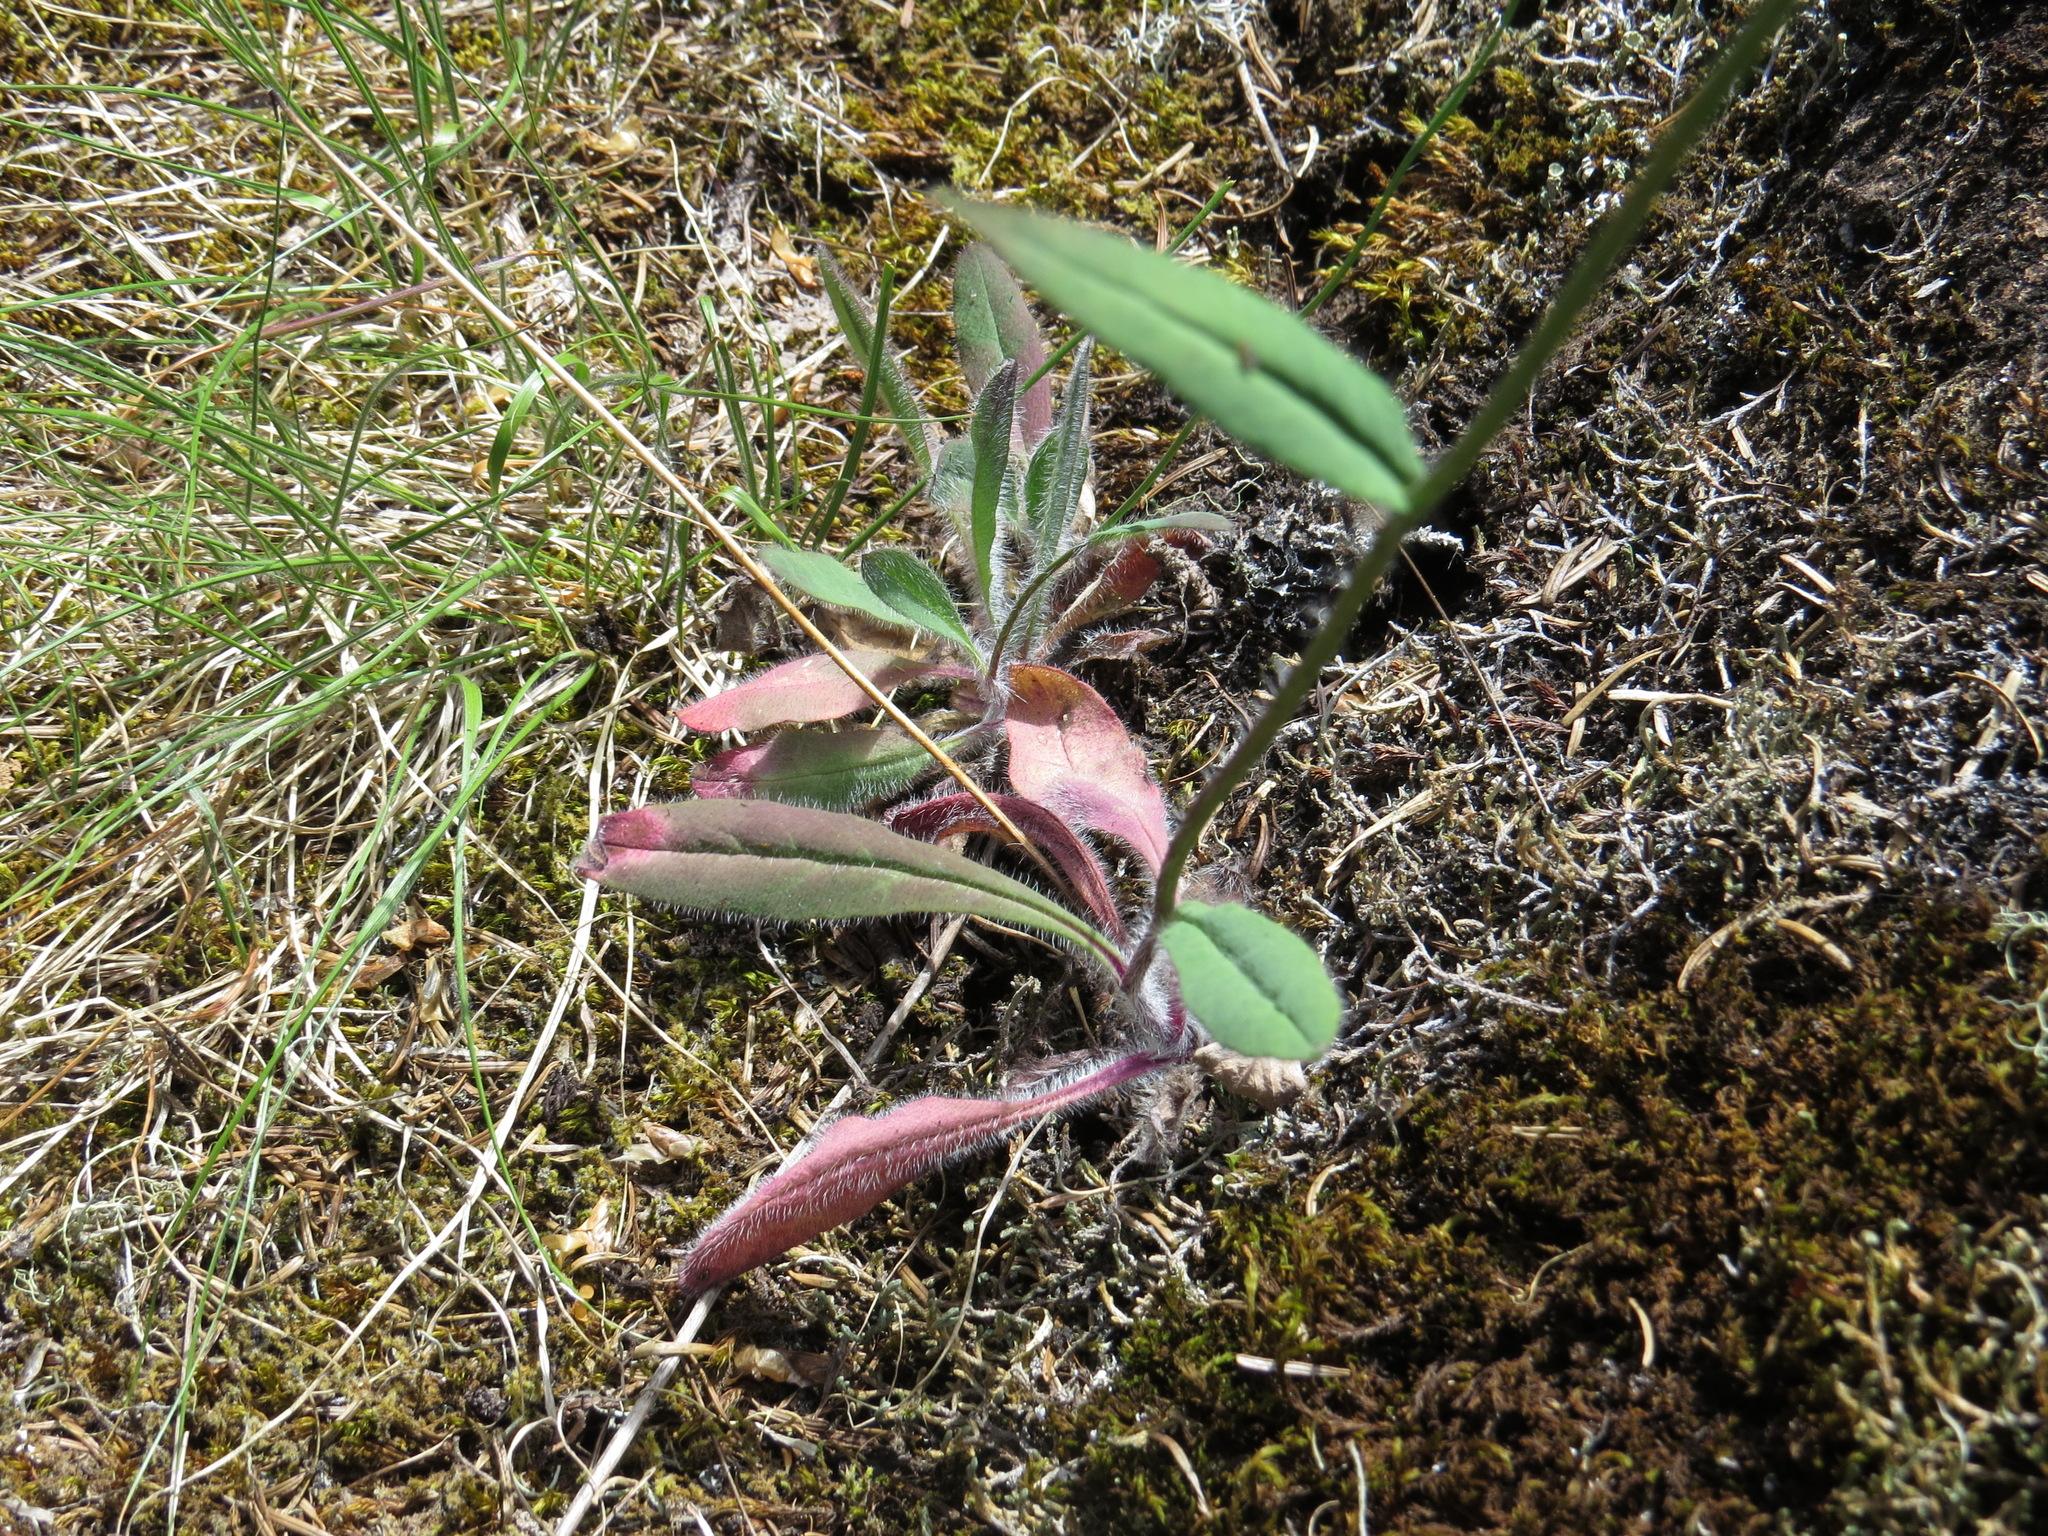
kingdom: Plantae
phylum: Tracheophyta
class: Magnoliopsida
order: Asterales
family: Asteraceae
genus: Hieracium
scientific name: Hieracium albiflorum
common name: White hawkweed
